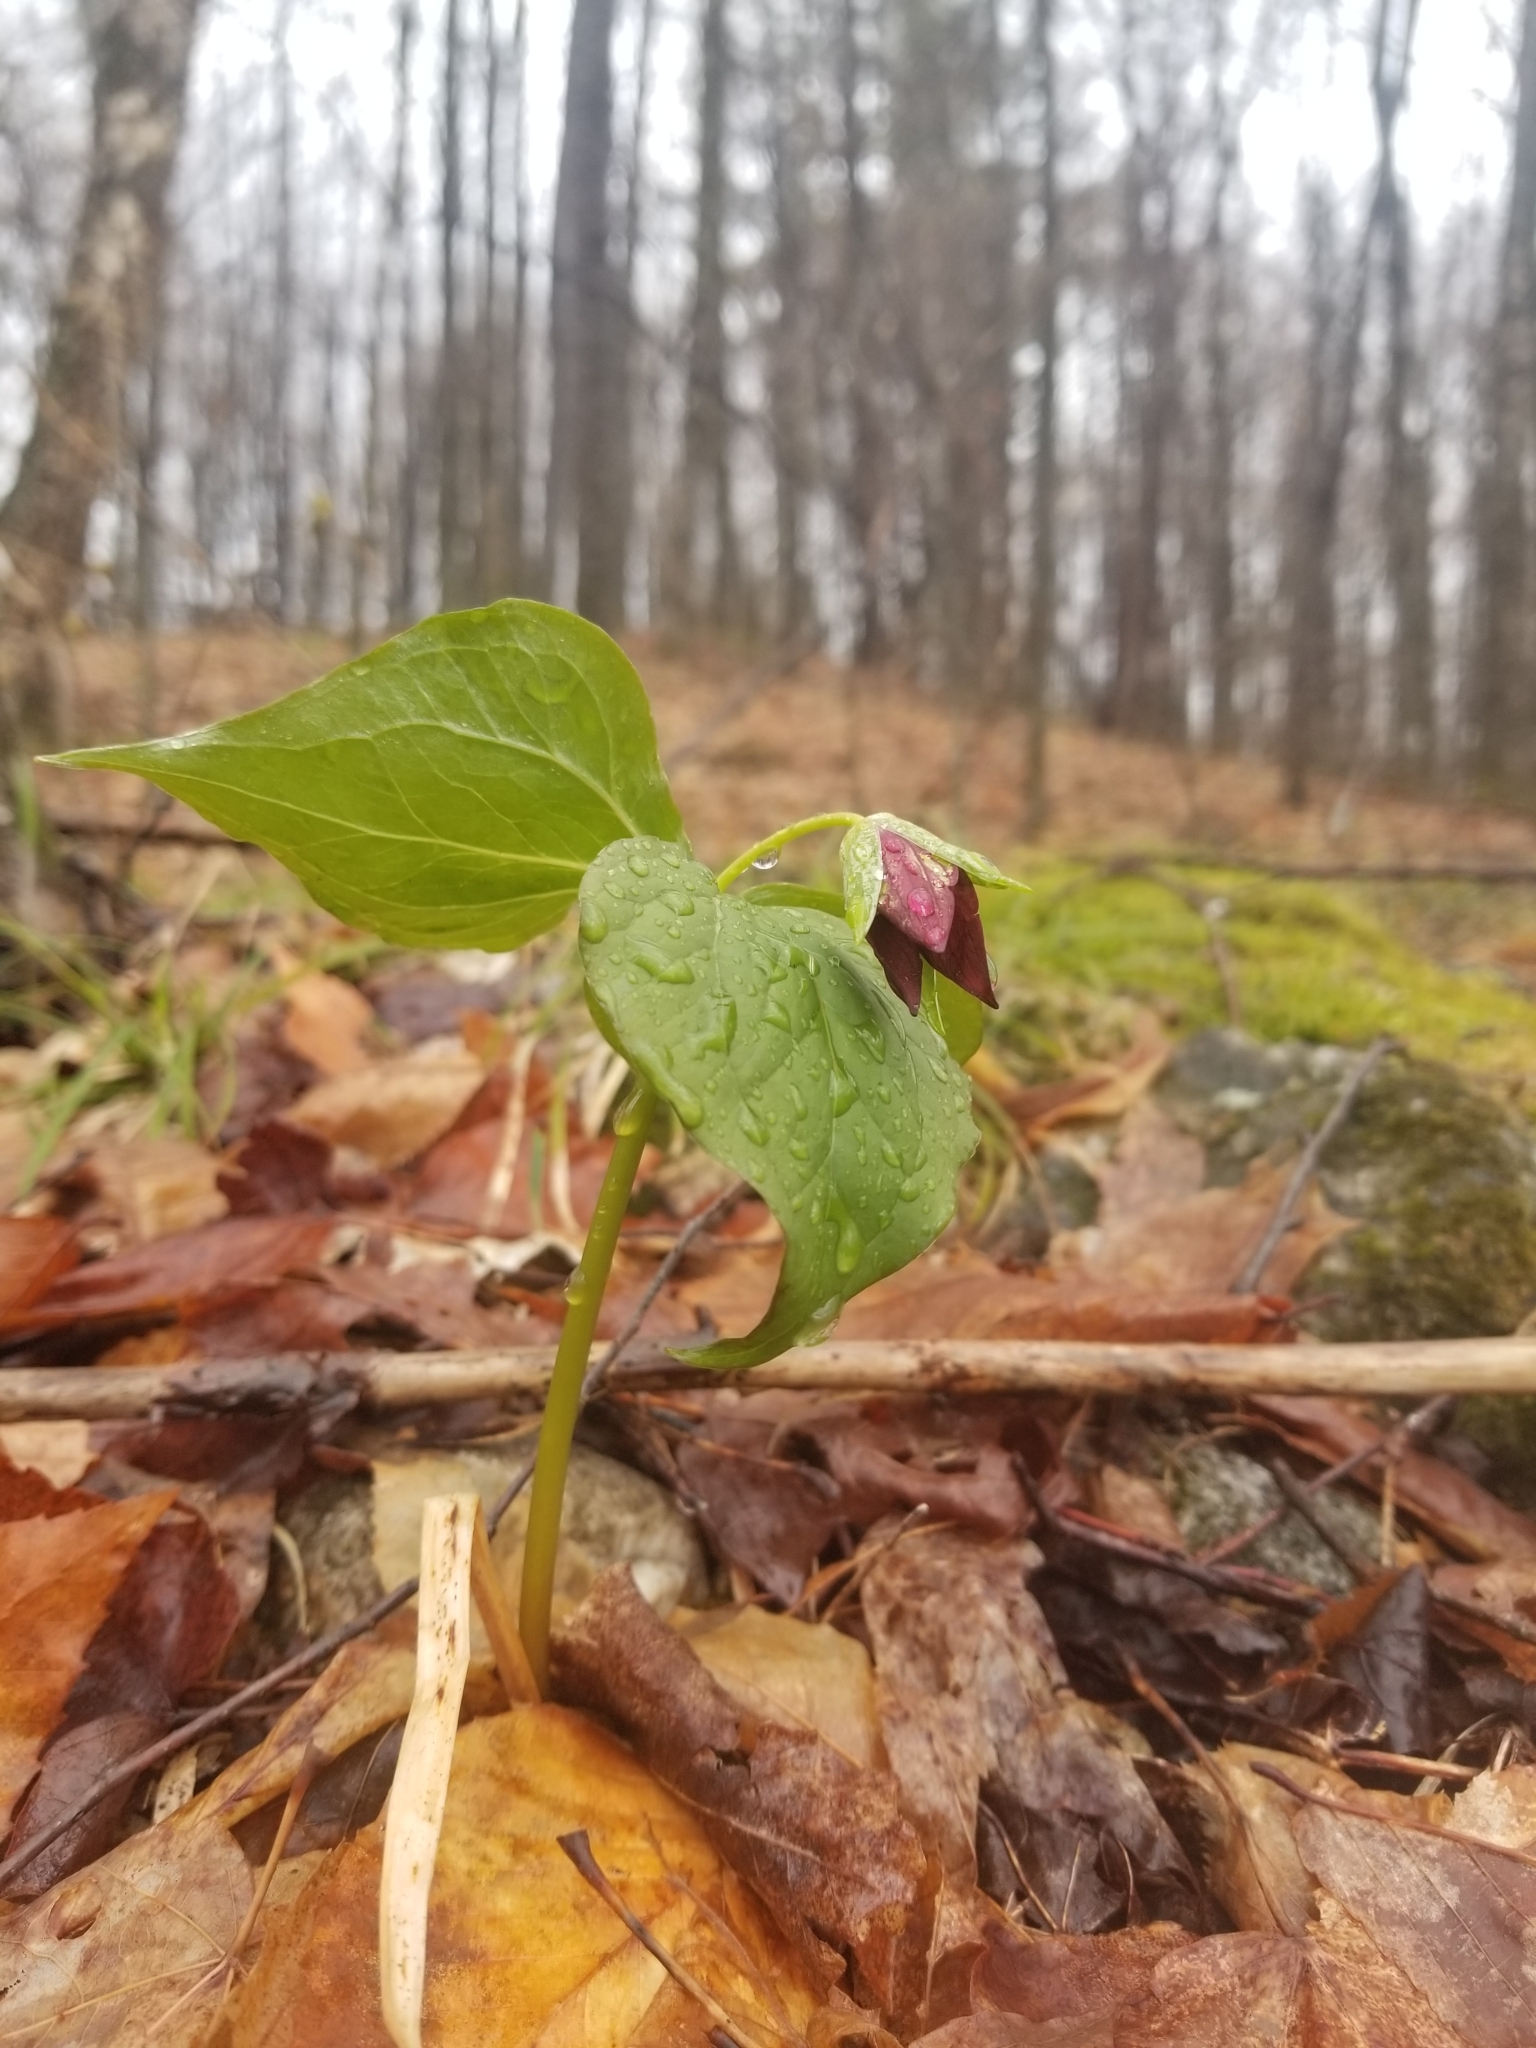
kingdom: Plantae
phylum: Tracheophyta
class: Liliopsida
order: Liliales
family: Melanthiaceae
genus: Trillium
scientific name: Trillium erectum
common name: Purple trillium
